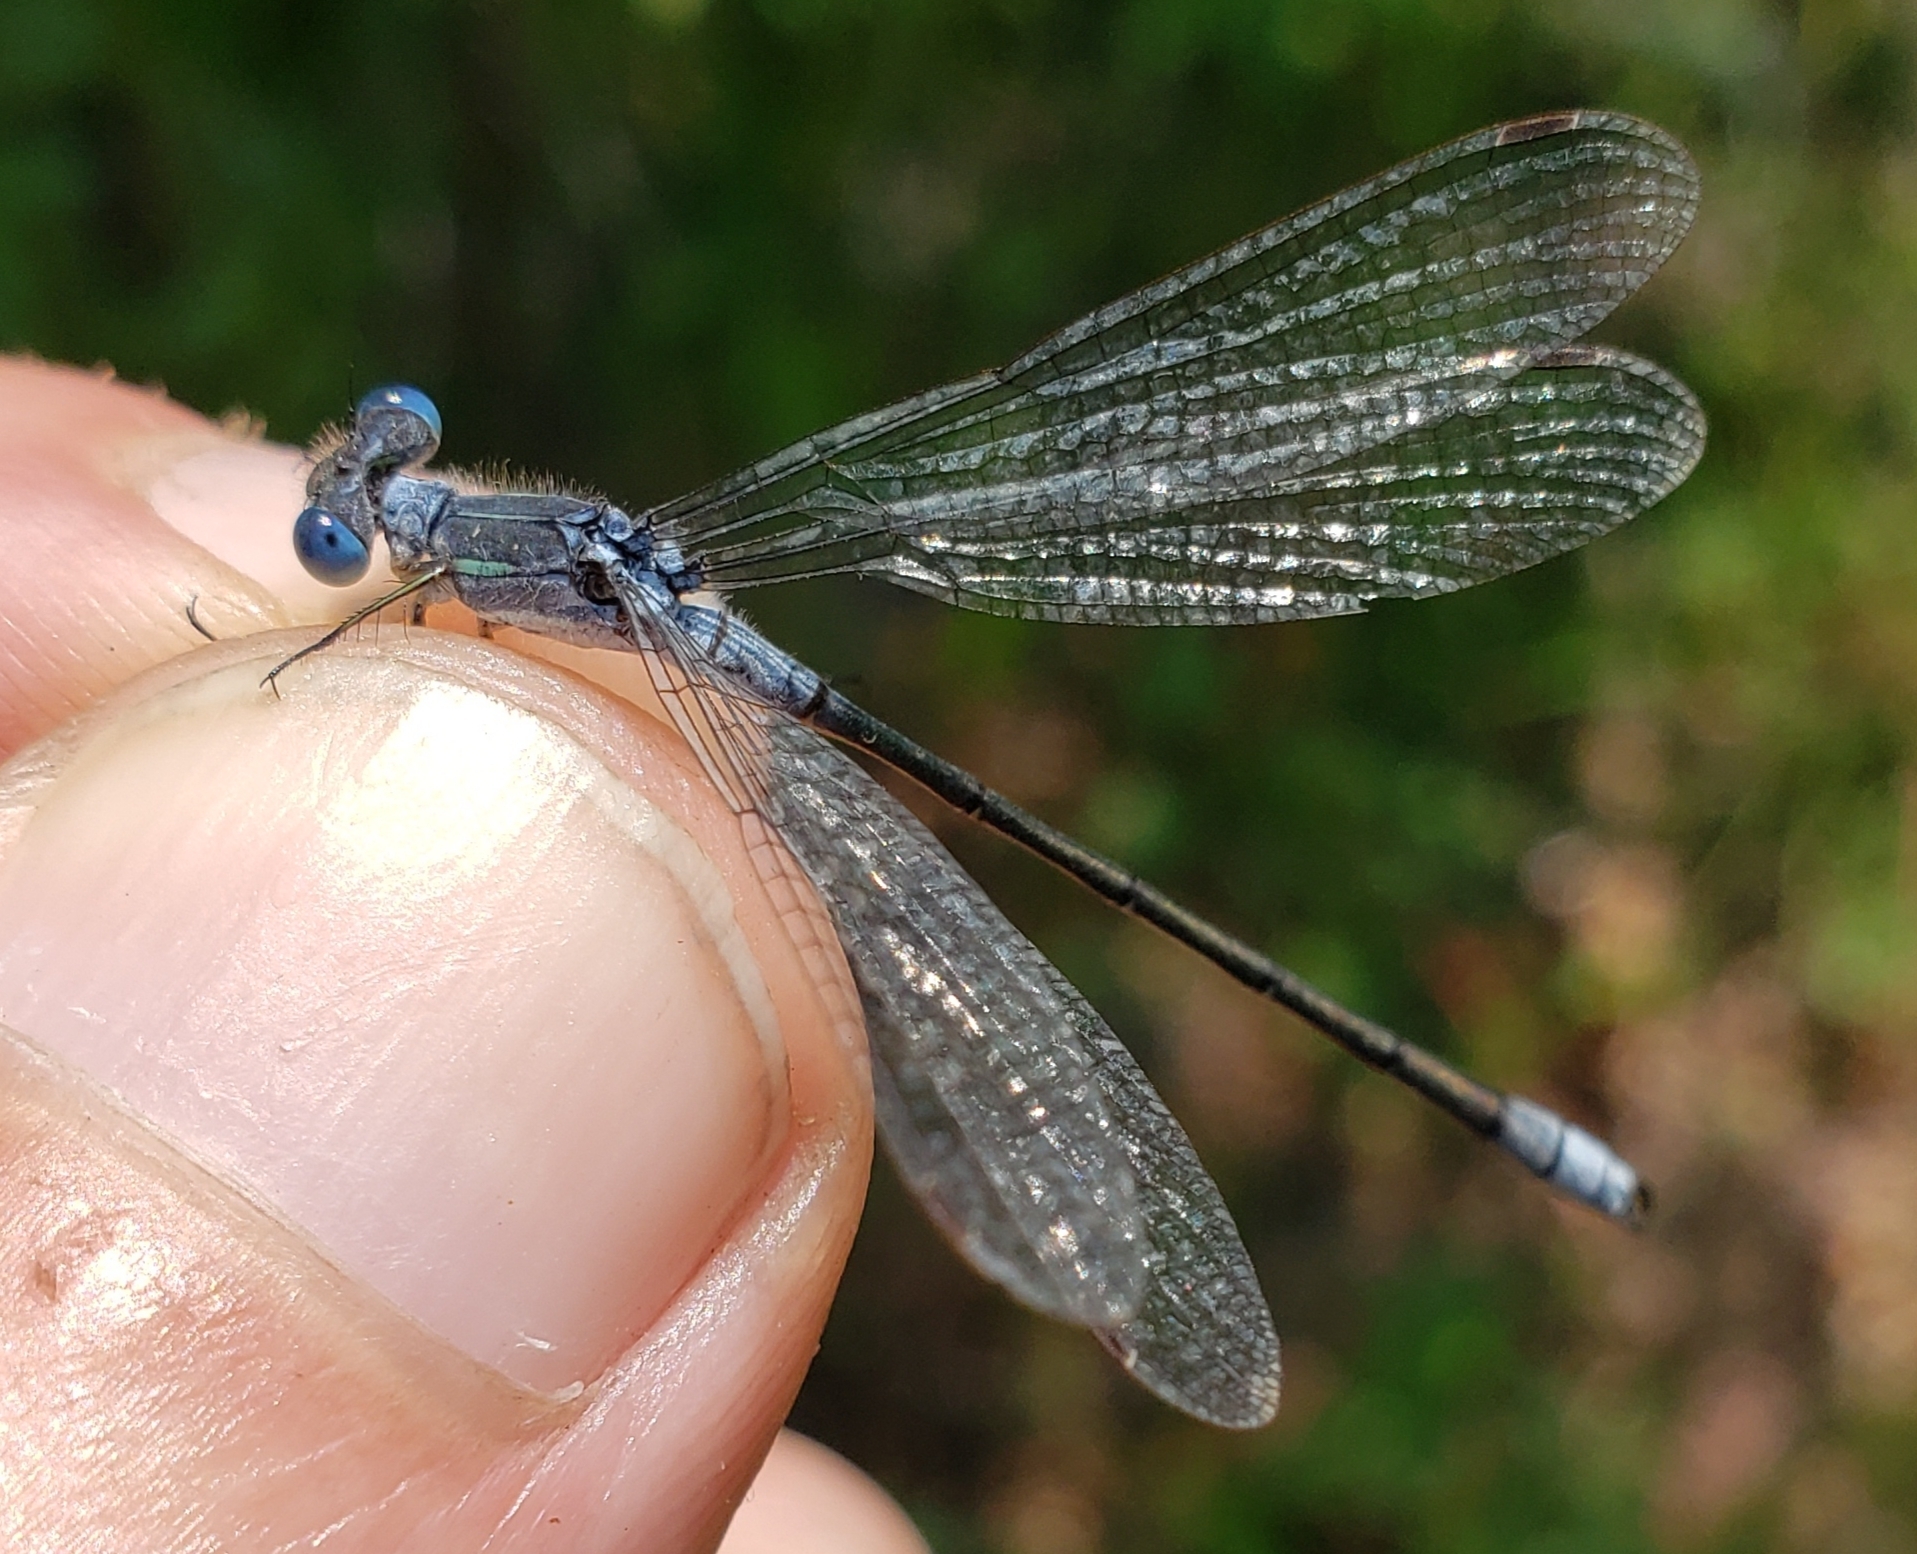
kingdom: Animalia
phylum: Arthropoda
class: Insecta
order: Odonata
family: Lestidae
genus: Lestes
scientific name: Lestes disjunctus
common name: Northern spreadwing
